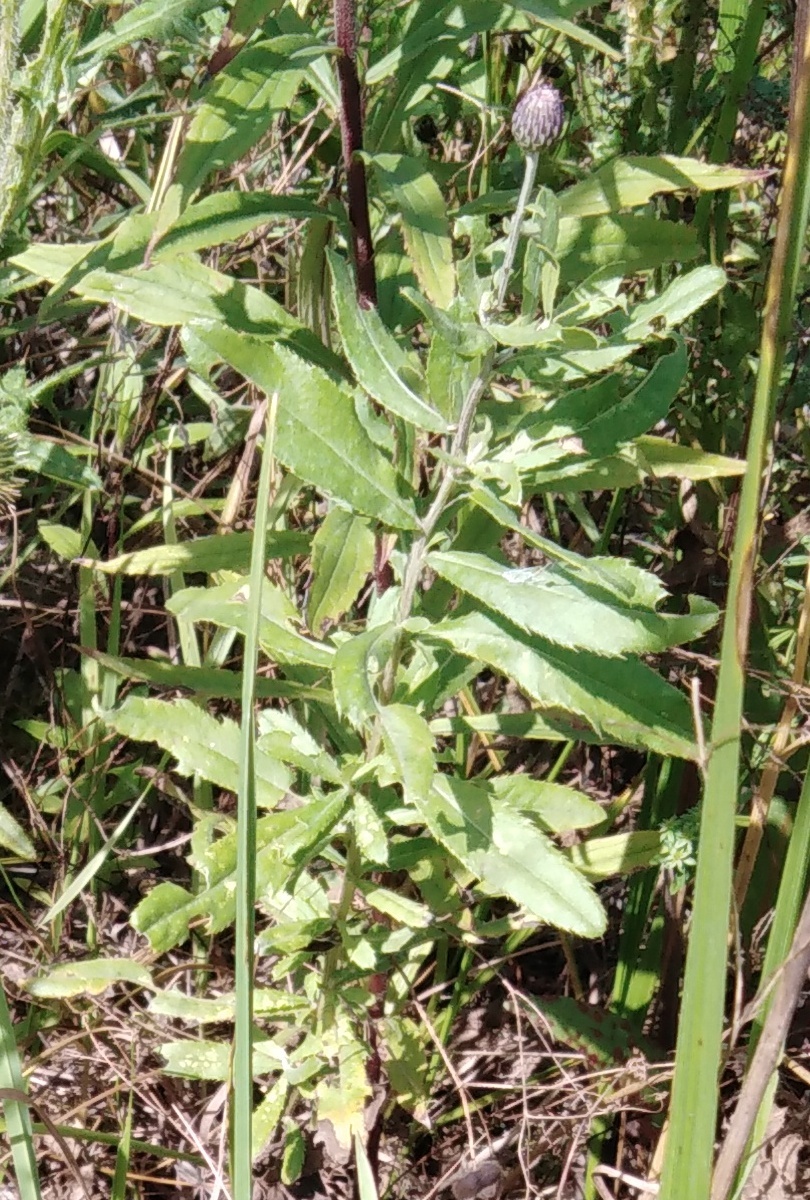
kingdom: Plantae
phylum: Tracheophyta
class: Magnoliopsida
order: Asterales
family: Asteraceae
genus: Cirsium
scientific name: Cirsium arvense
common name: Creeping thistle
